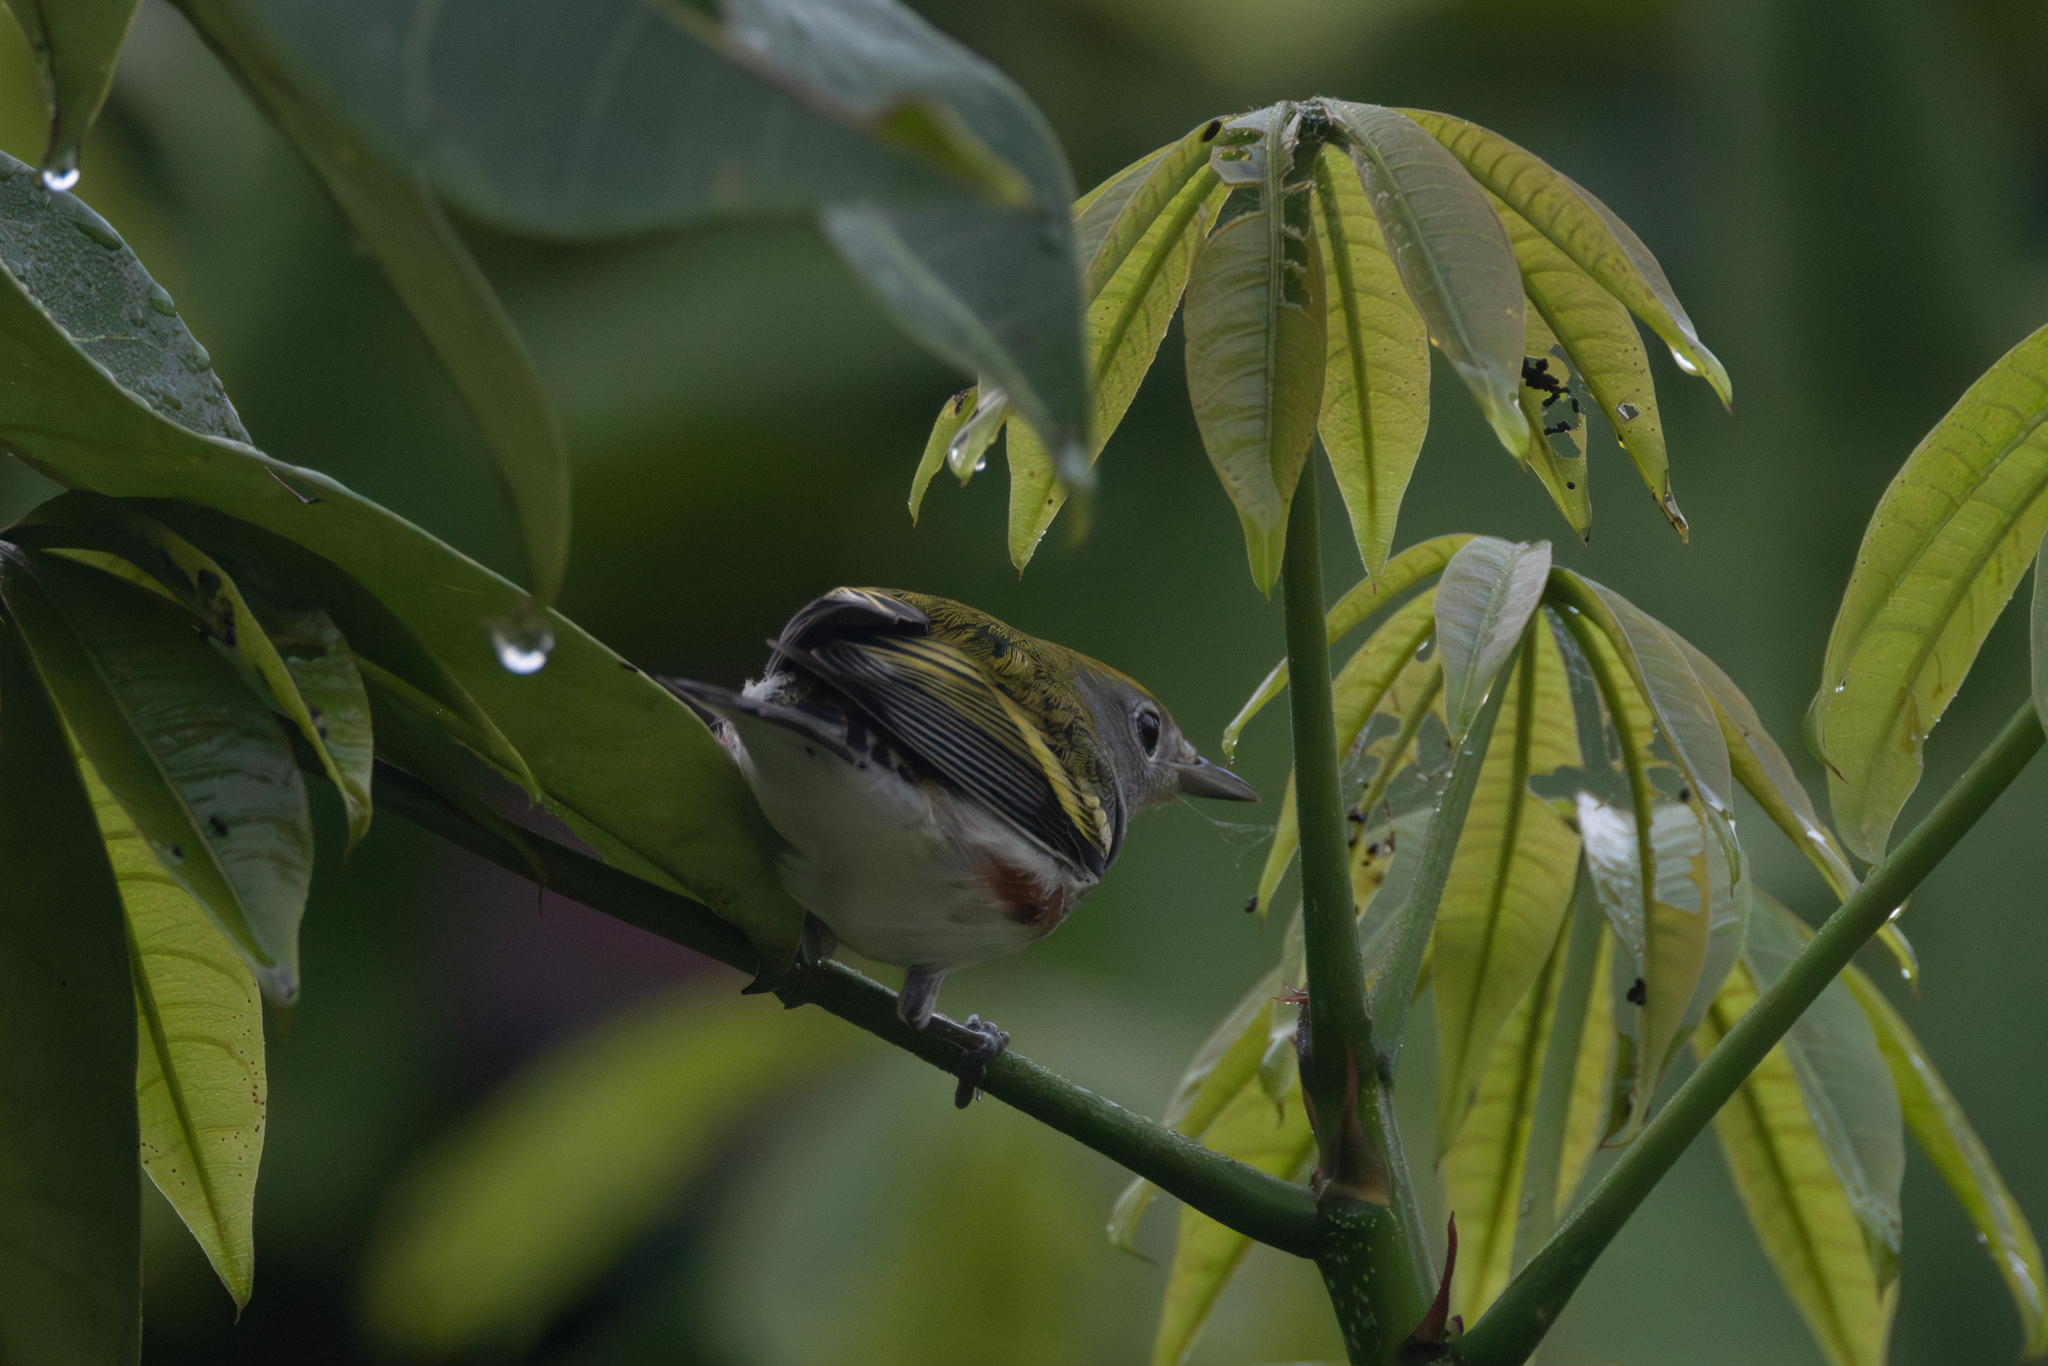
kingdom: Animalia
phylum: Chordata
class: Aves
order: Passeriformes
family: Parulidae
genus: Setophaga
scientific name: Setophaga pensylvanica
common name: Chestnut-sided warbler
